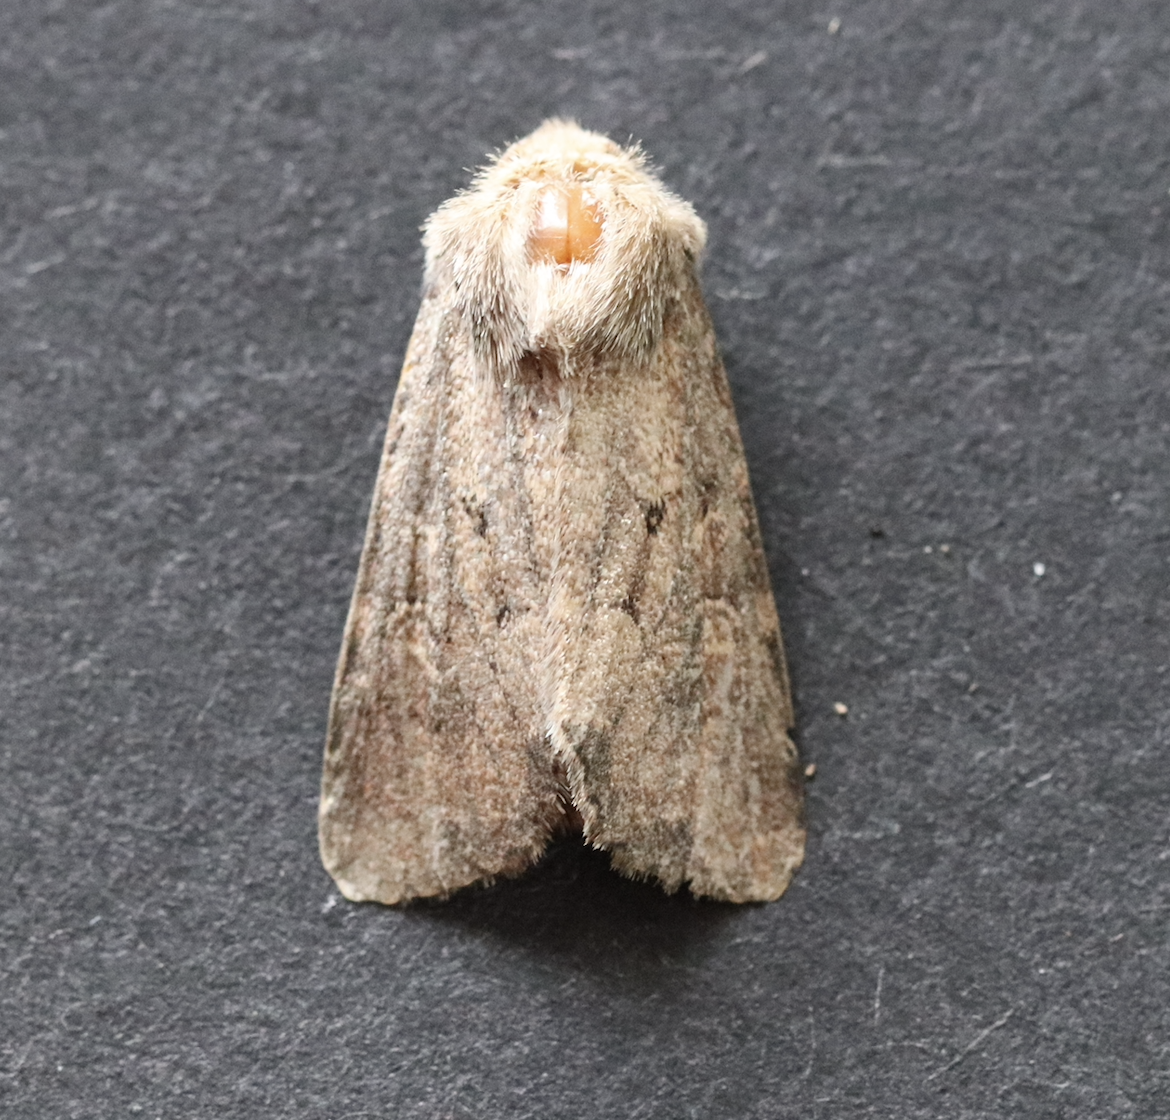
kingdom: Animalia
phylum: Arthropoda
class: Insecta
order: Lepidoptera
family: Noctuidae
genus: Luperina
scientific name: Luperina testacea
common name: Flounced rustic
